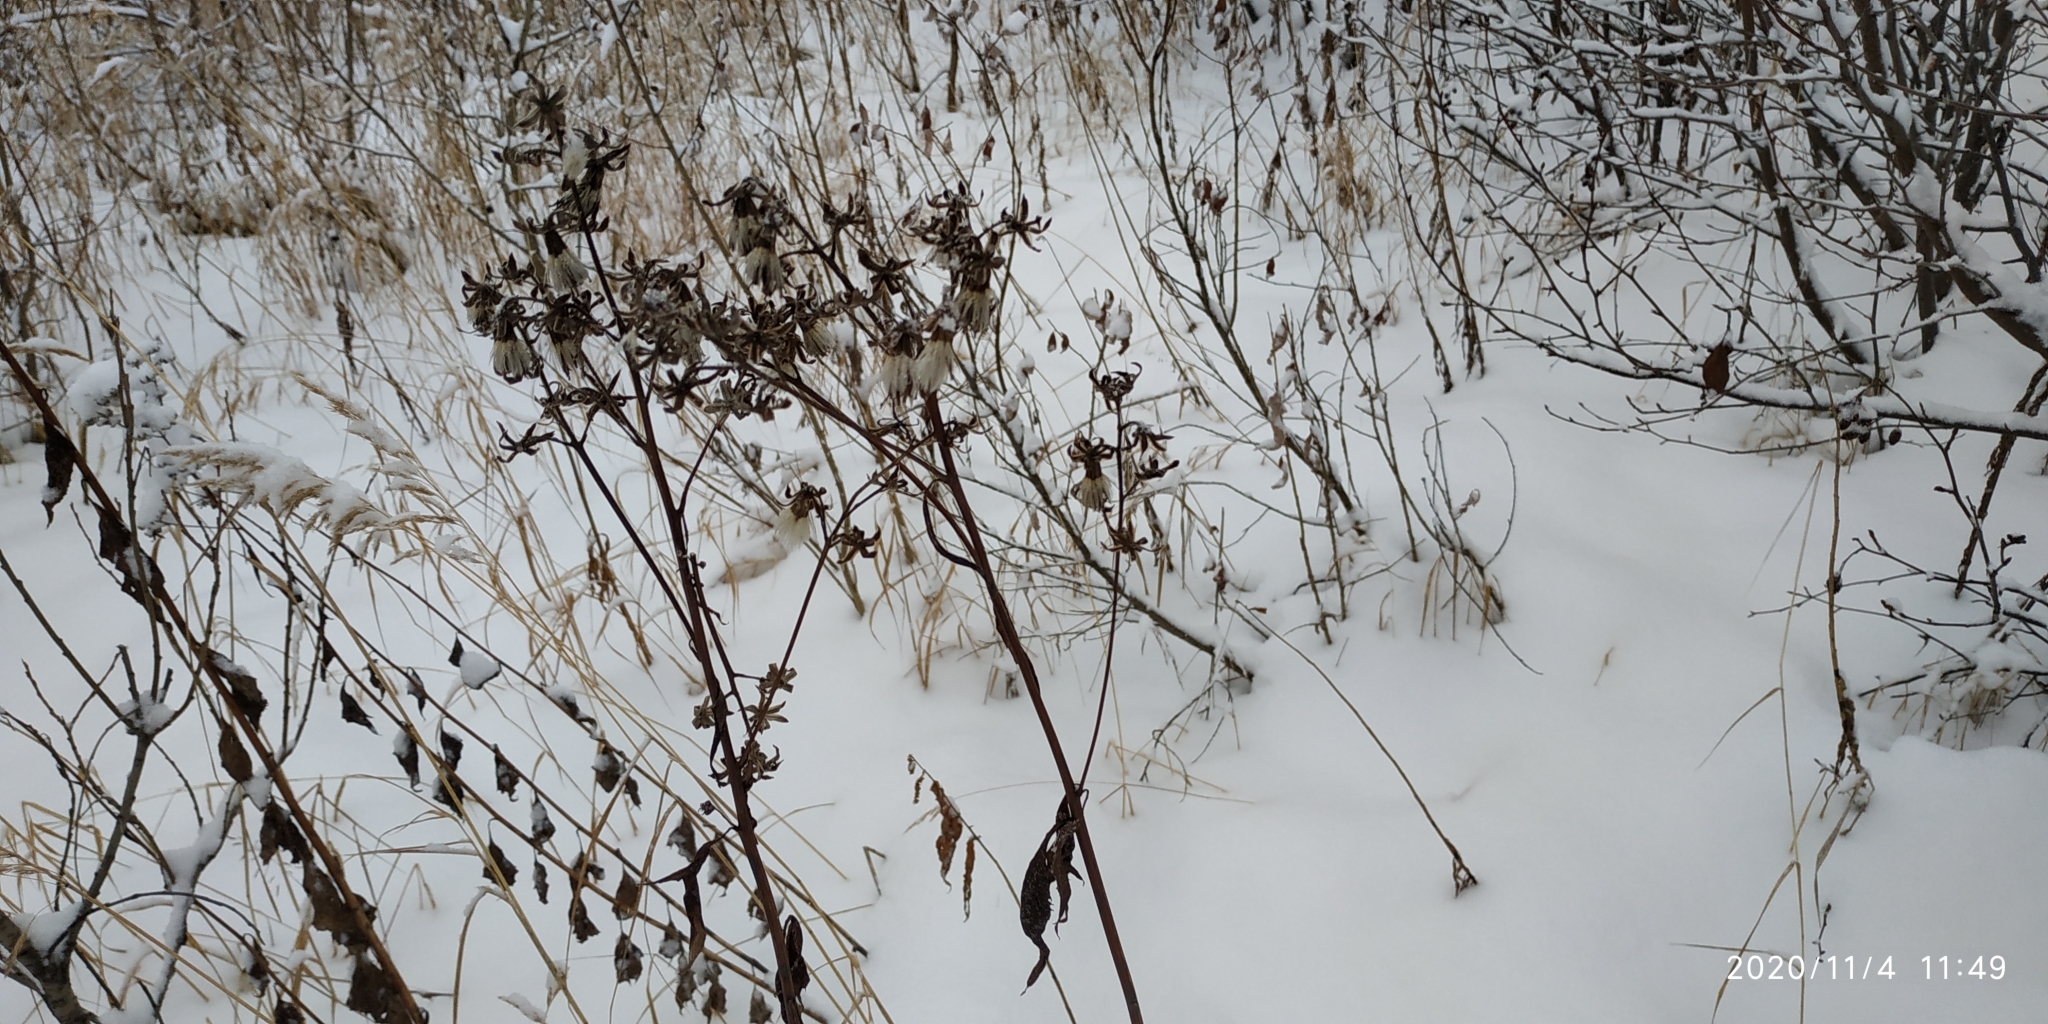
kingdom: Plantae
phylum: Tracheophyta
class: Magnoliopsida
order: Asterales
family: Asteraceae
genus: Solidago
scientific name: Solidago virgaurea
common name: Goldenrod
